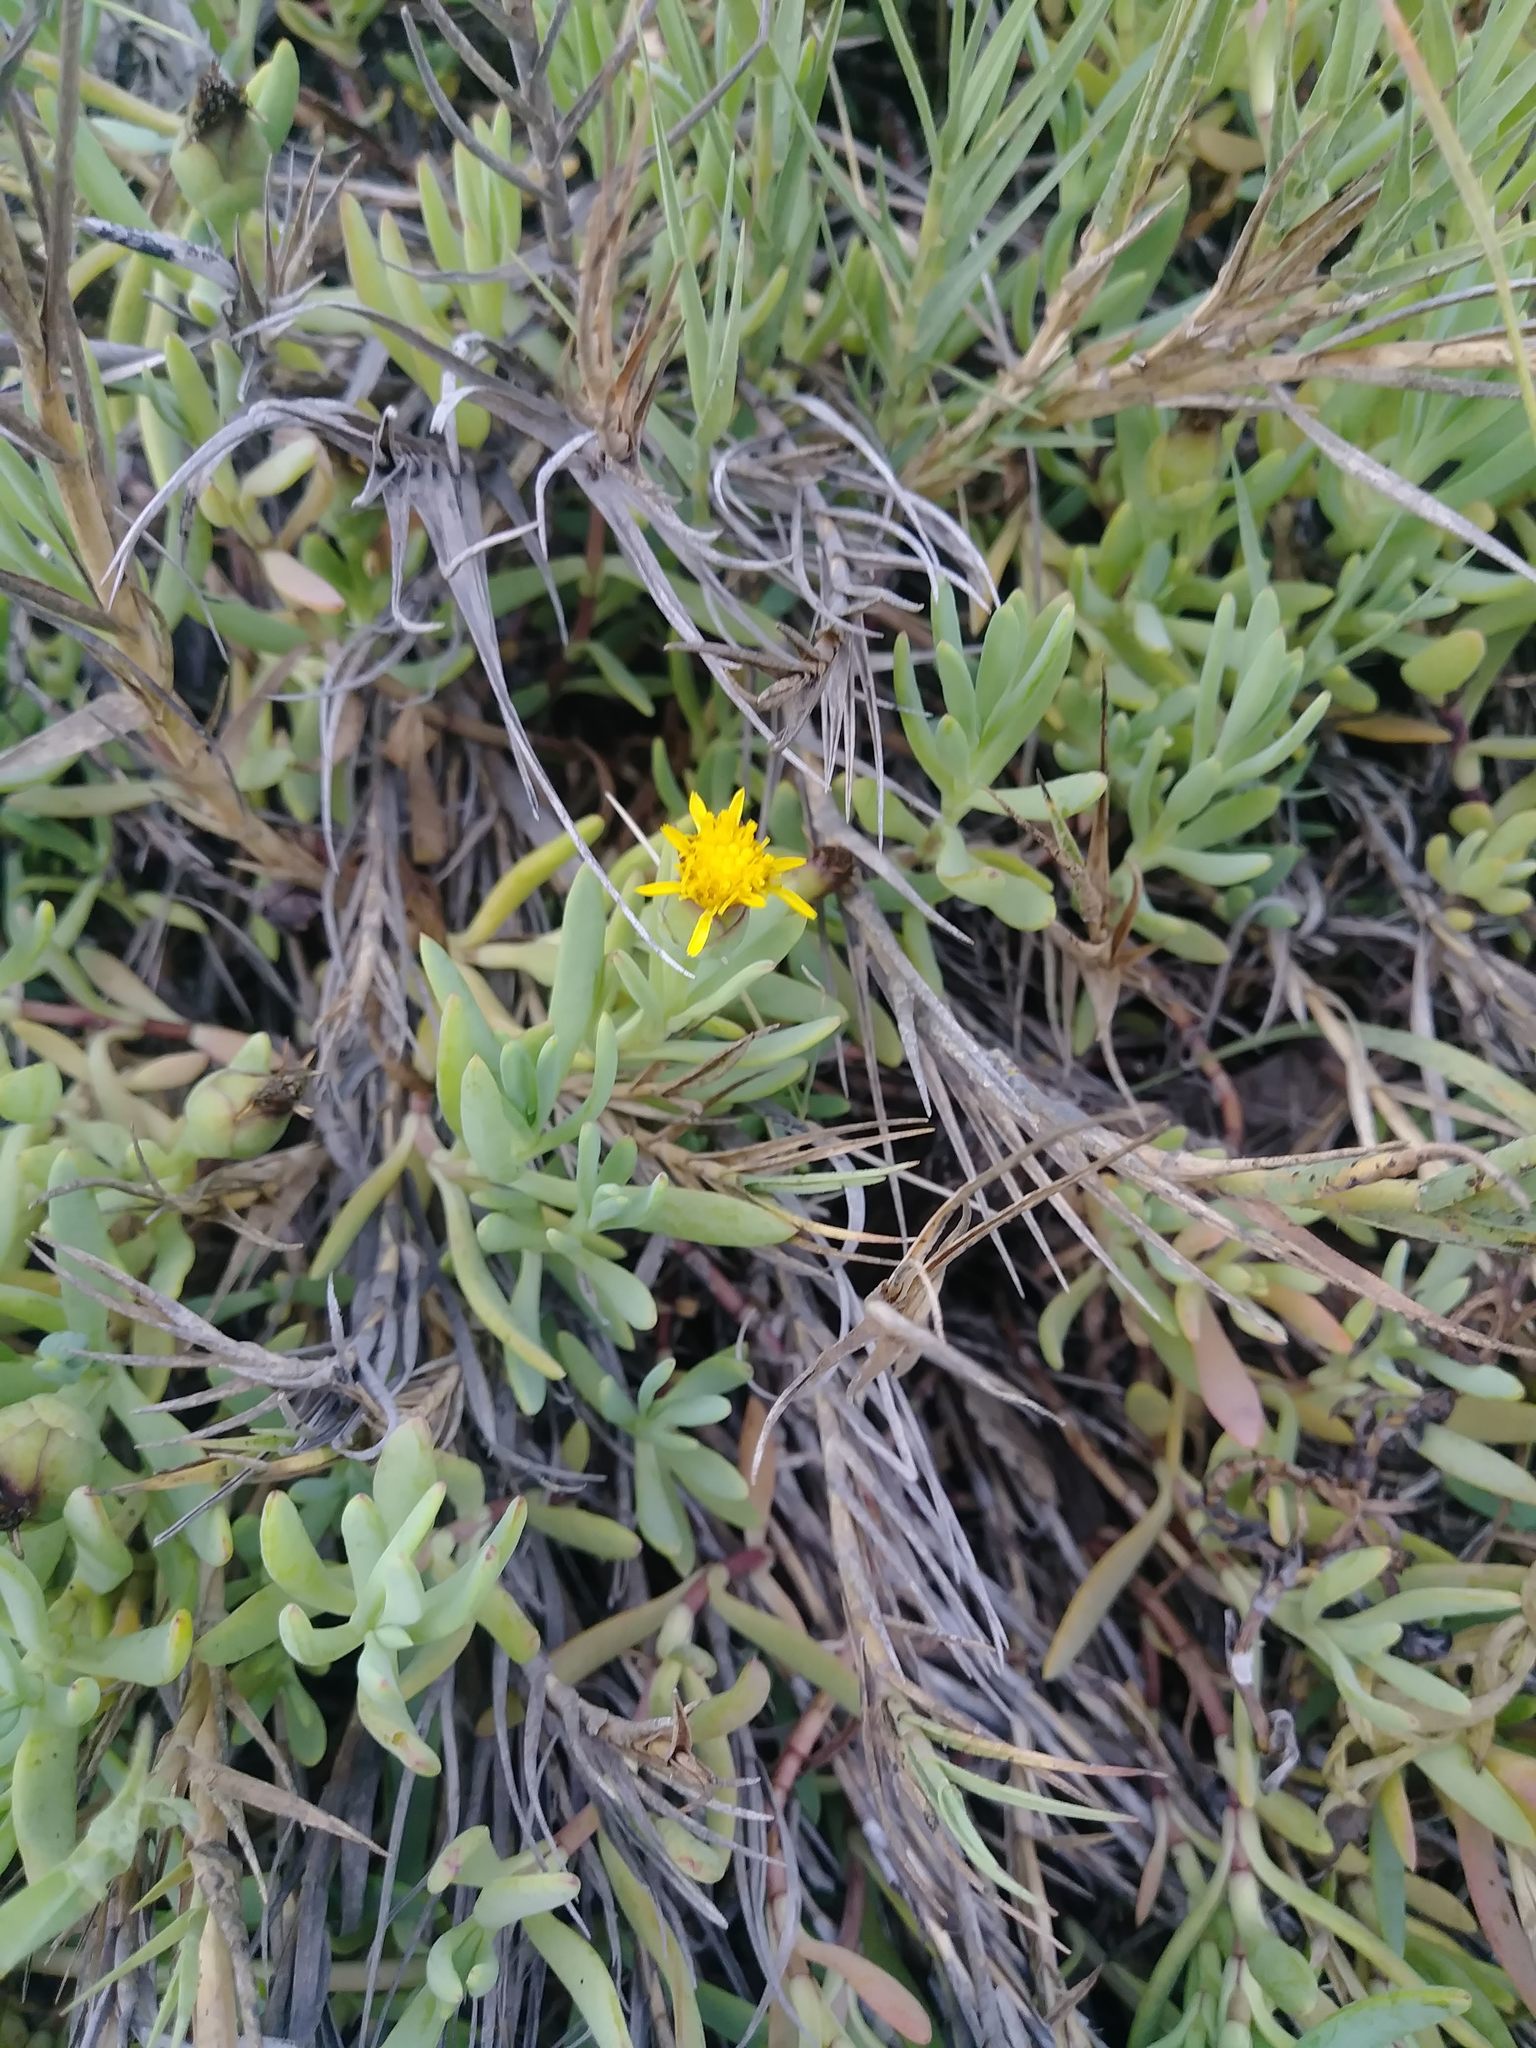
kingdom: Plantae
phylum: Tracheophyta
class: Magnoliopsida
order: Asterales
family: Asteraceae
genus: Jaumea
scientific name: Jaumea carnosa
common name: Fleshy jaumea
